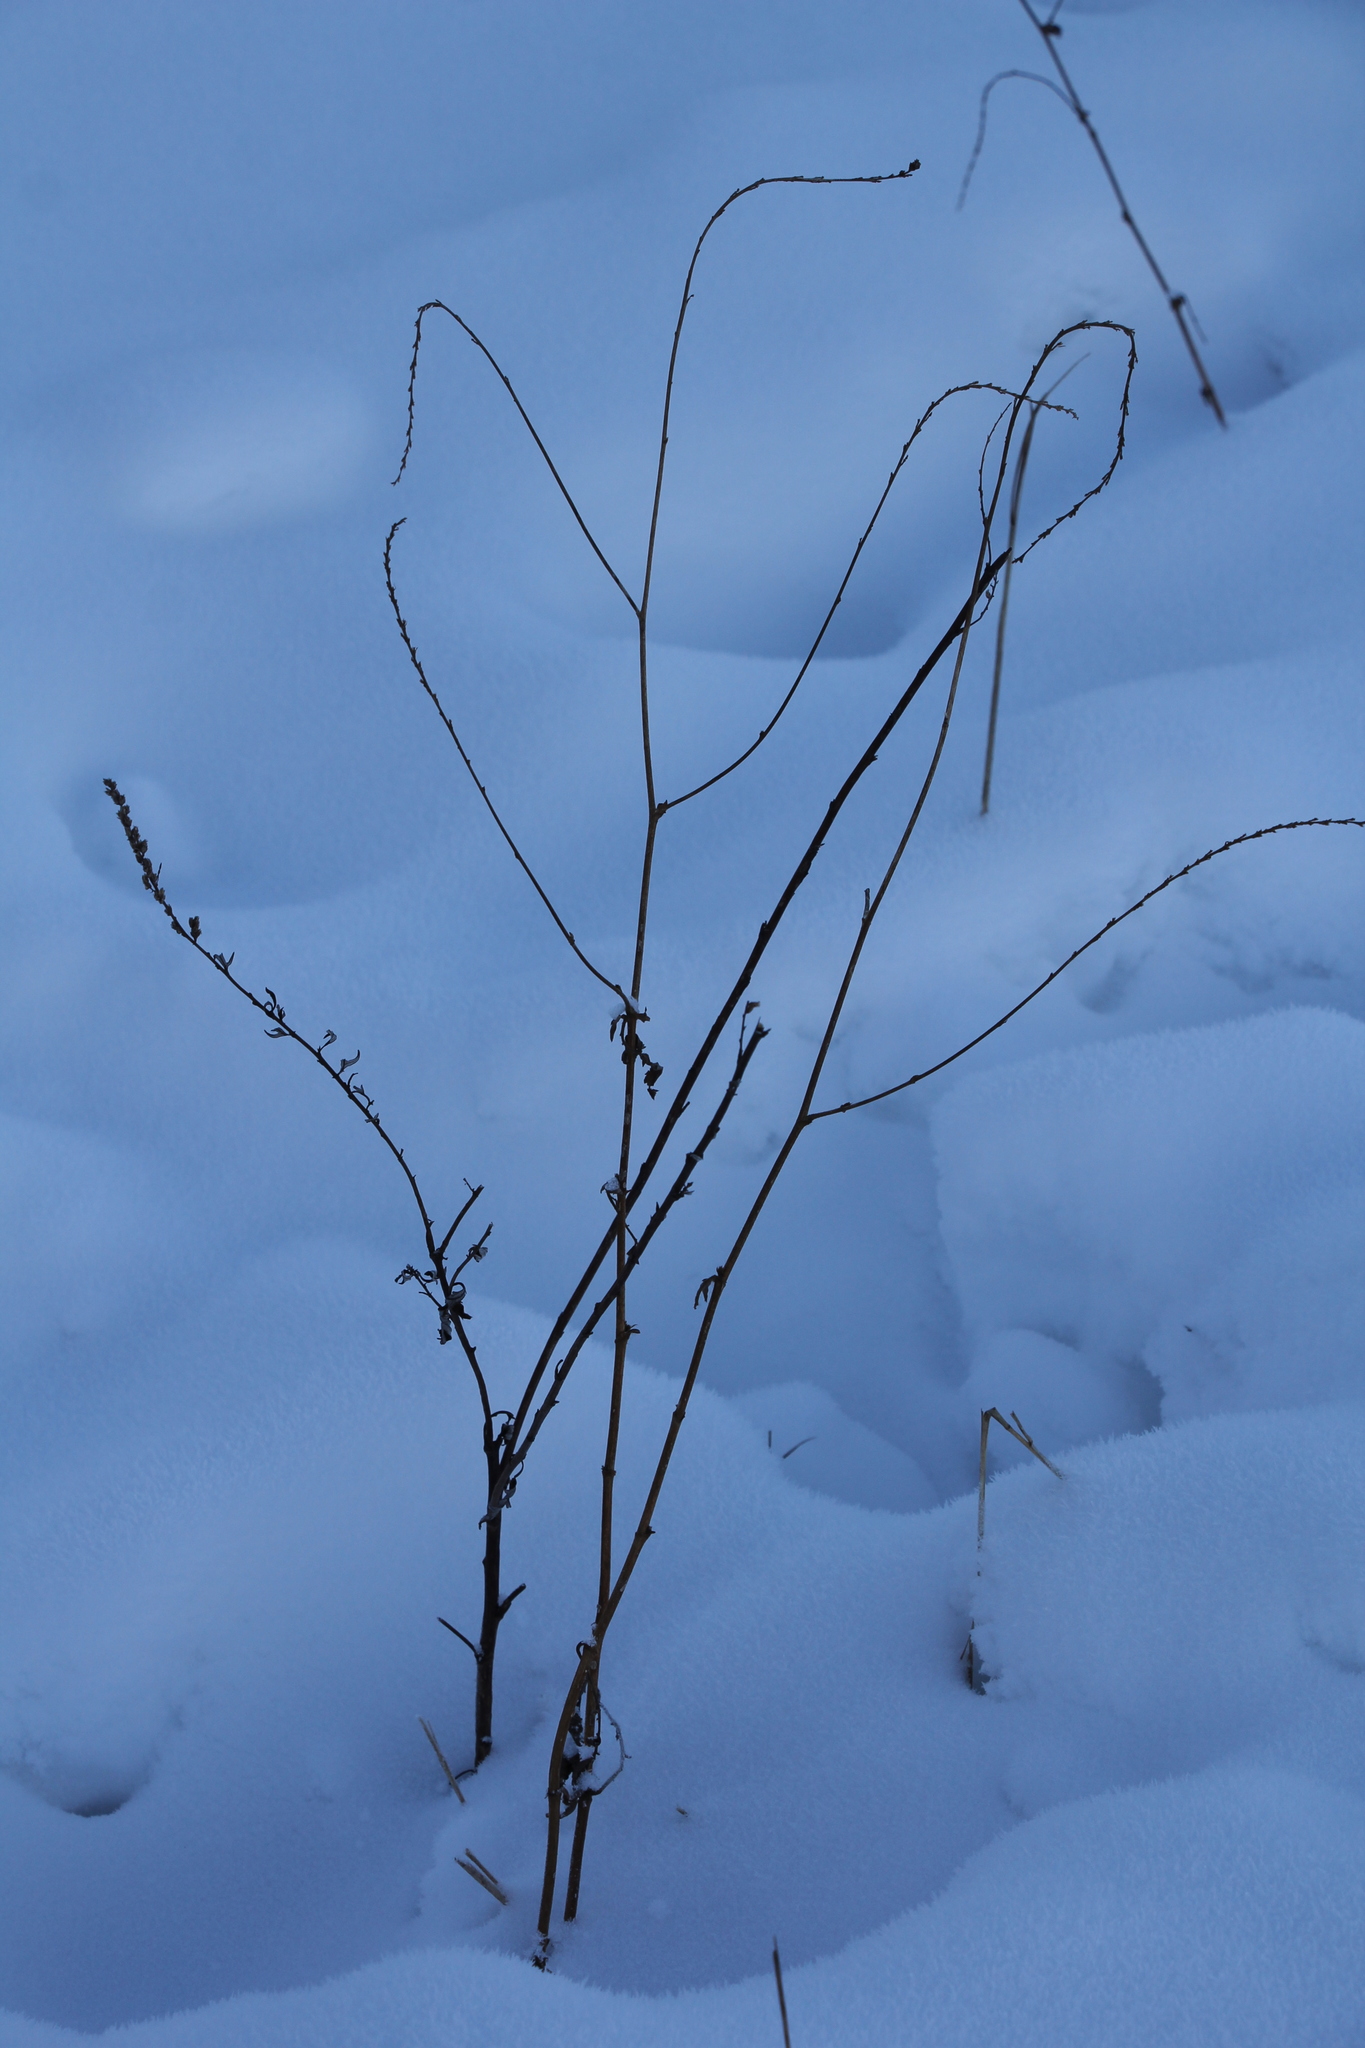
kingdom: Plantae
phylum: Tracheophyta
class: Magnoliopsida
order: Rosales
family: Rosaceae
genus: Agrimonia
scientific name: Agrimonia pilosa
